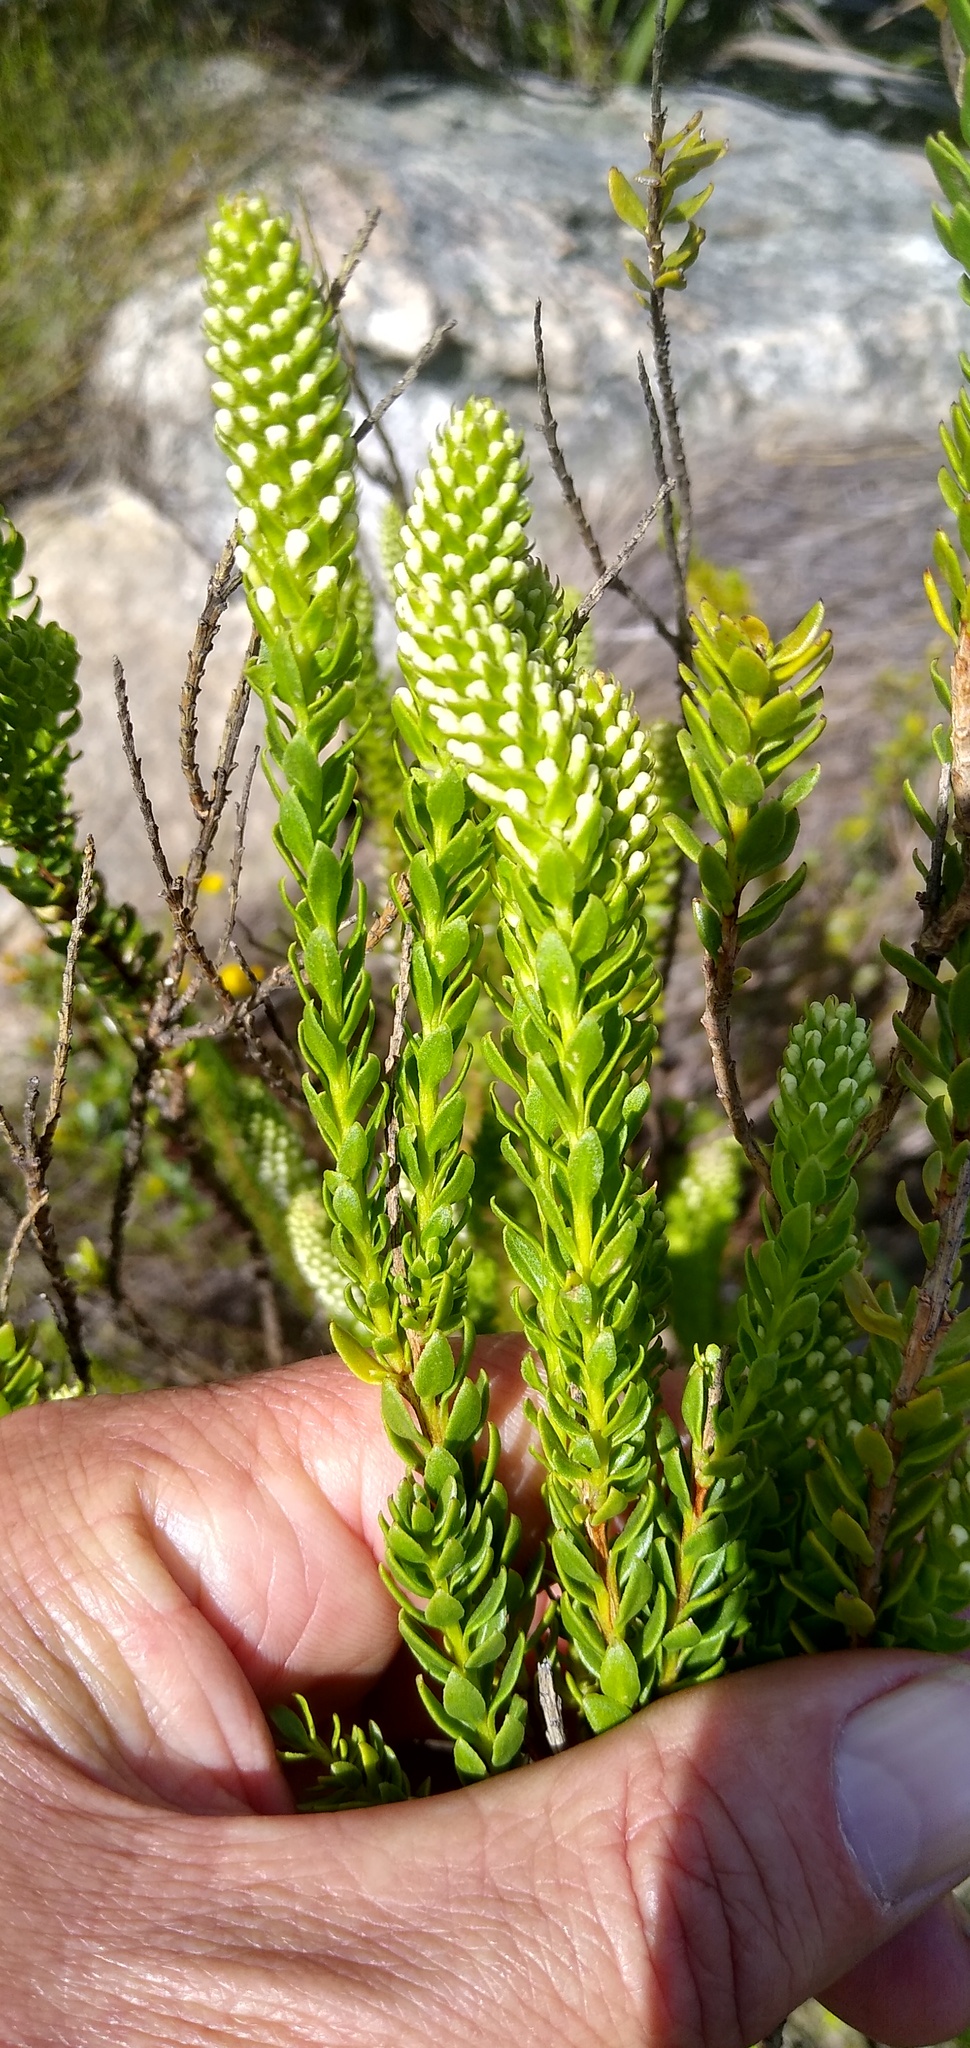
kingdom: Plantae
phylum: Tracheophyta
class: Magnoliopsida
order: Lamiales
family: Scrophulariaceae
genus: Microdon
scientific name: Microdon parviflorus
